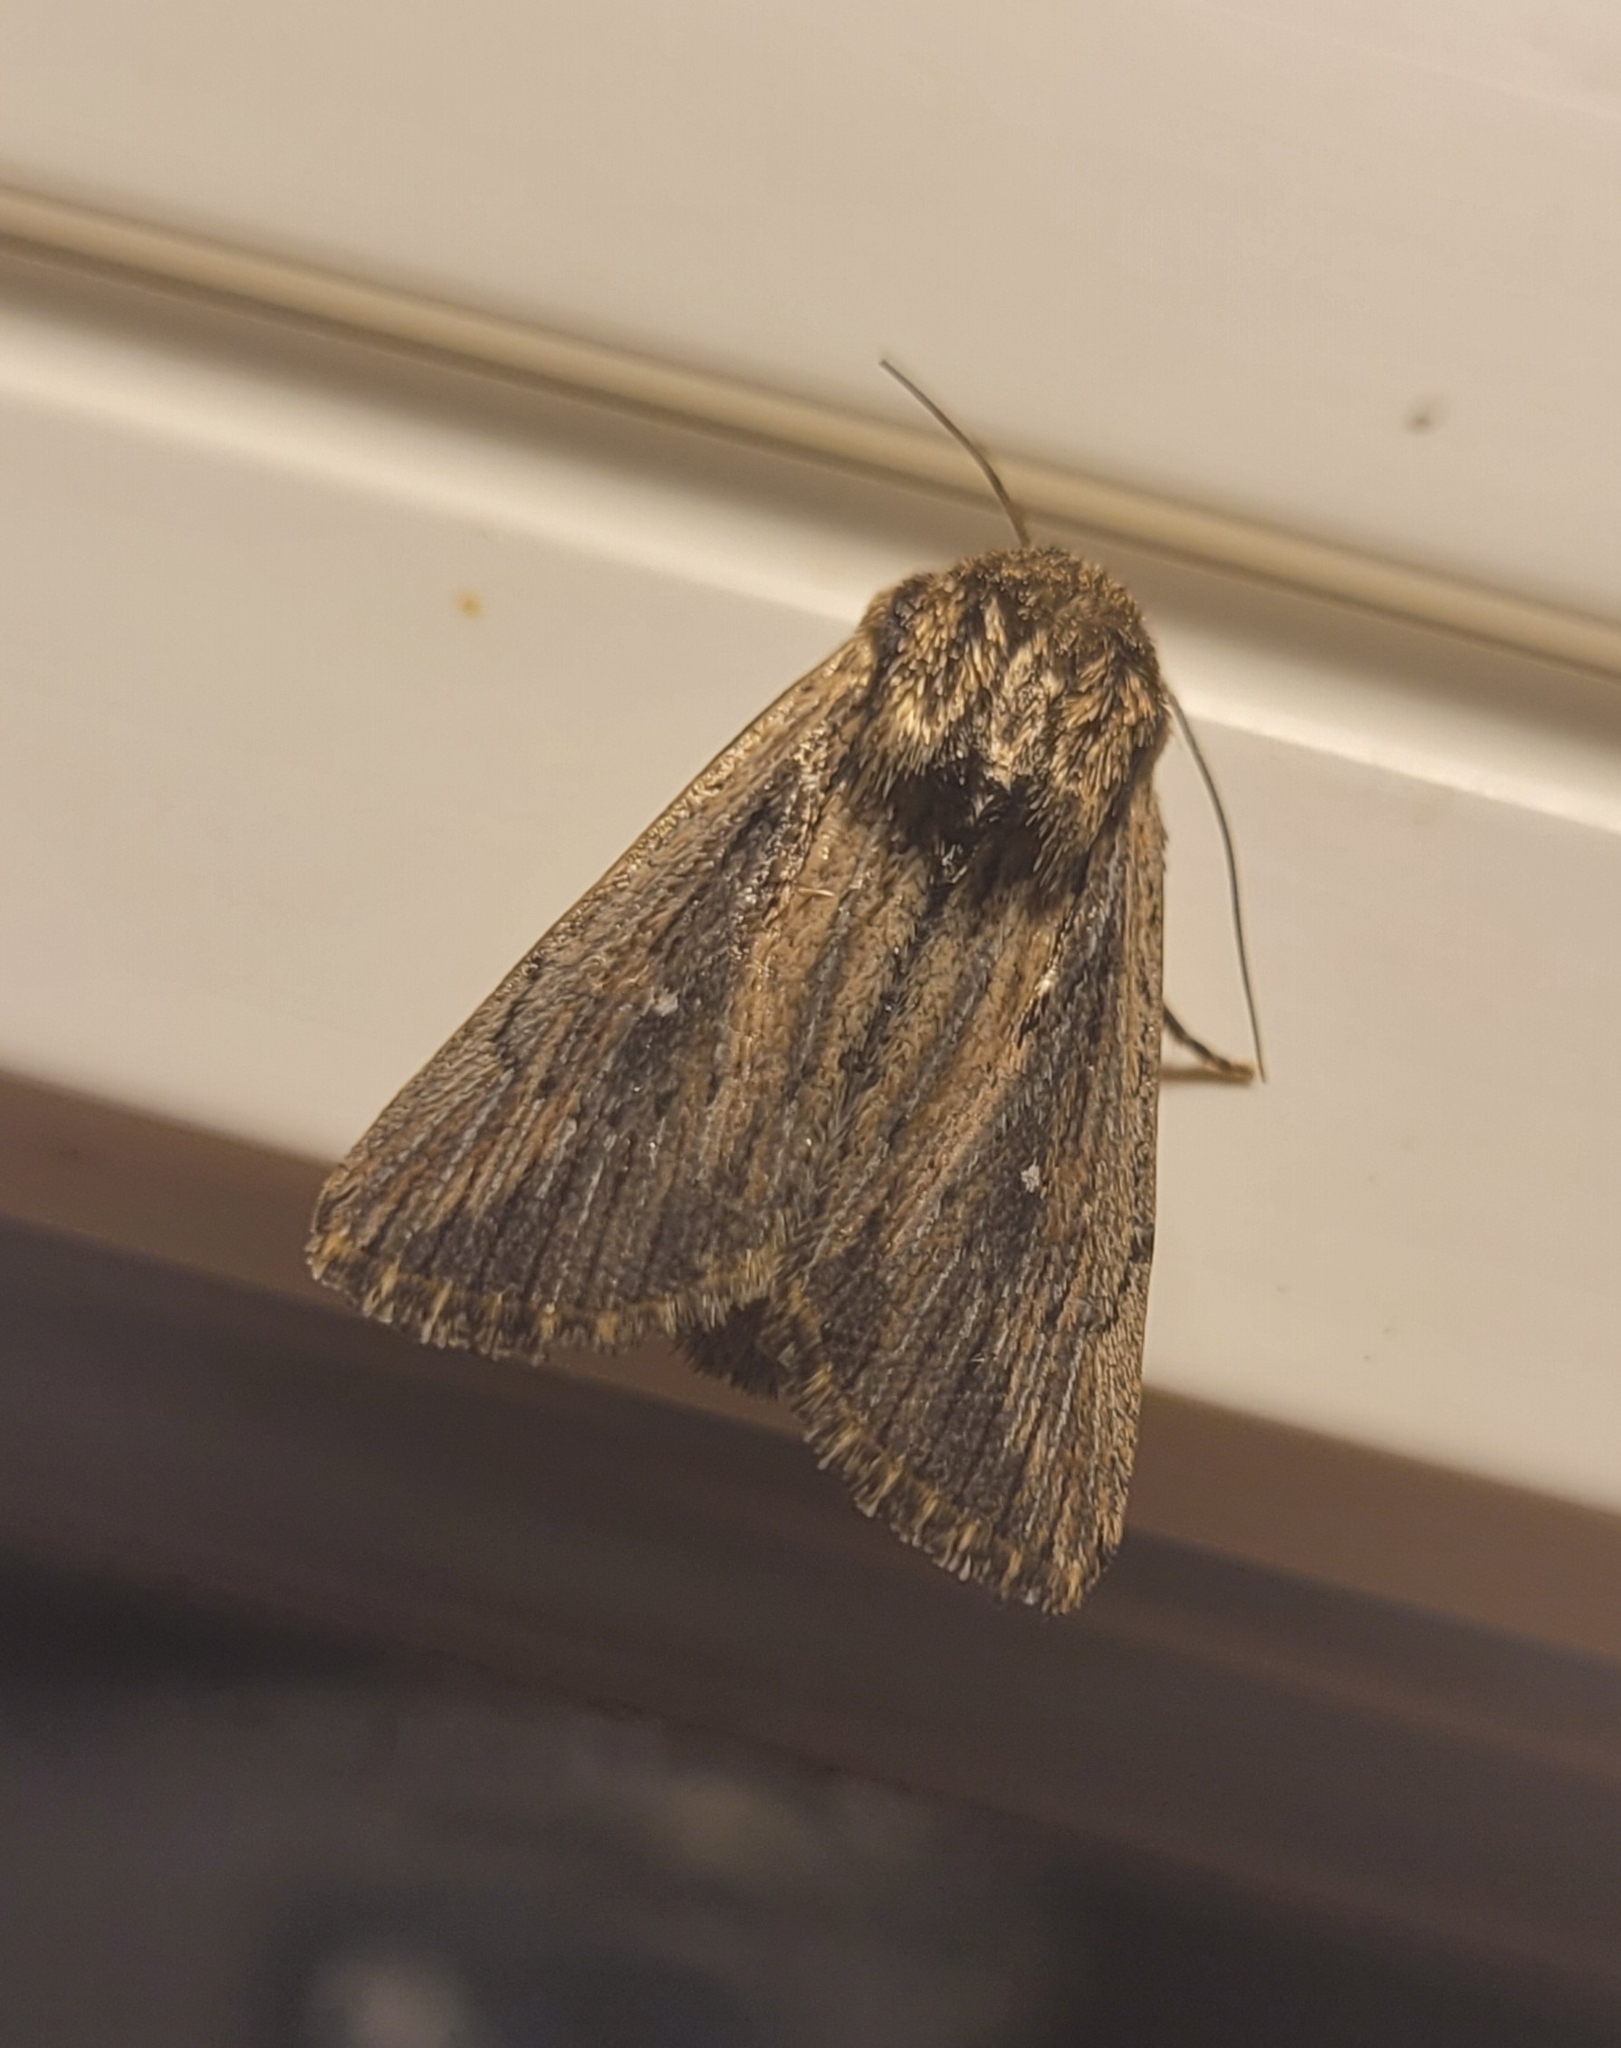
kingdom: Animalia
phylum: Arthropoda
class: Insecta
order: Lepidoptera
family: Noctuidae
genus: Leucania
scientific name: Leucania putrescens
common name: Devonshire wainscot
